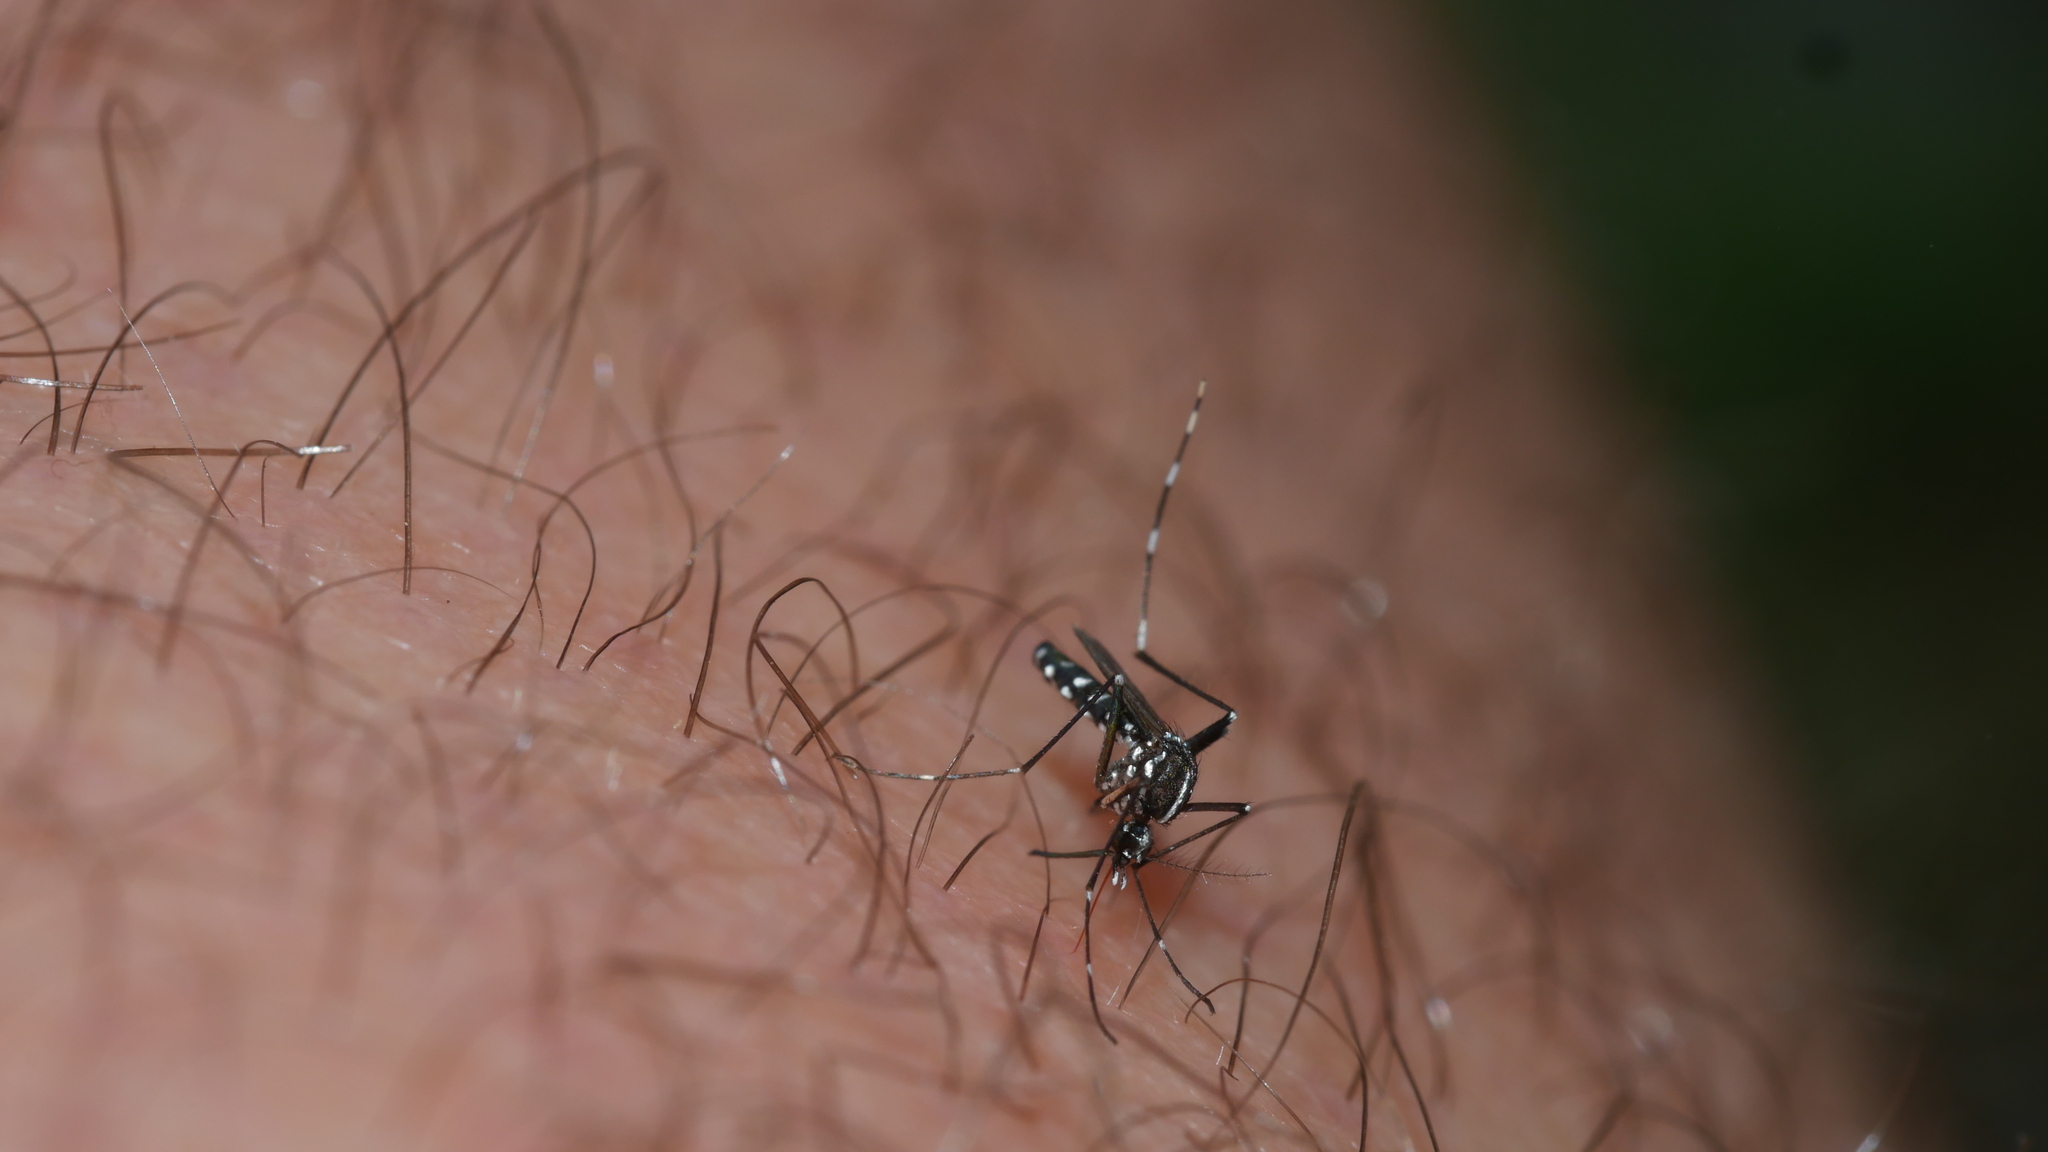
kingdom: Animalia
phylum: Arthropoda
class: Insecta
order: Diptera
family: Culicidae
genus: Aedes
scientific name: Aedes albopictus
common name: Tiger mosquito
